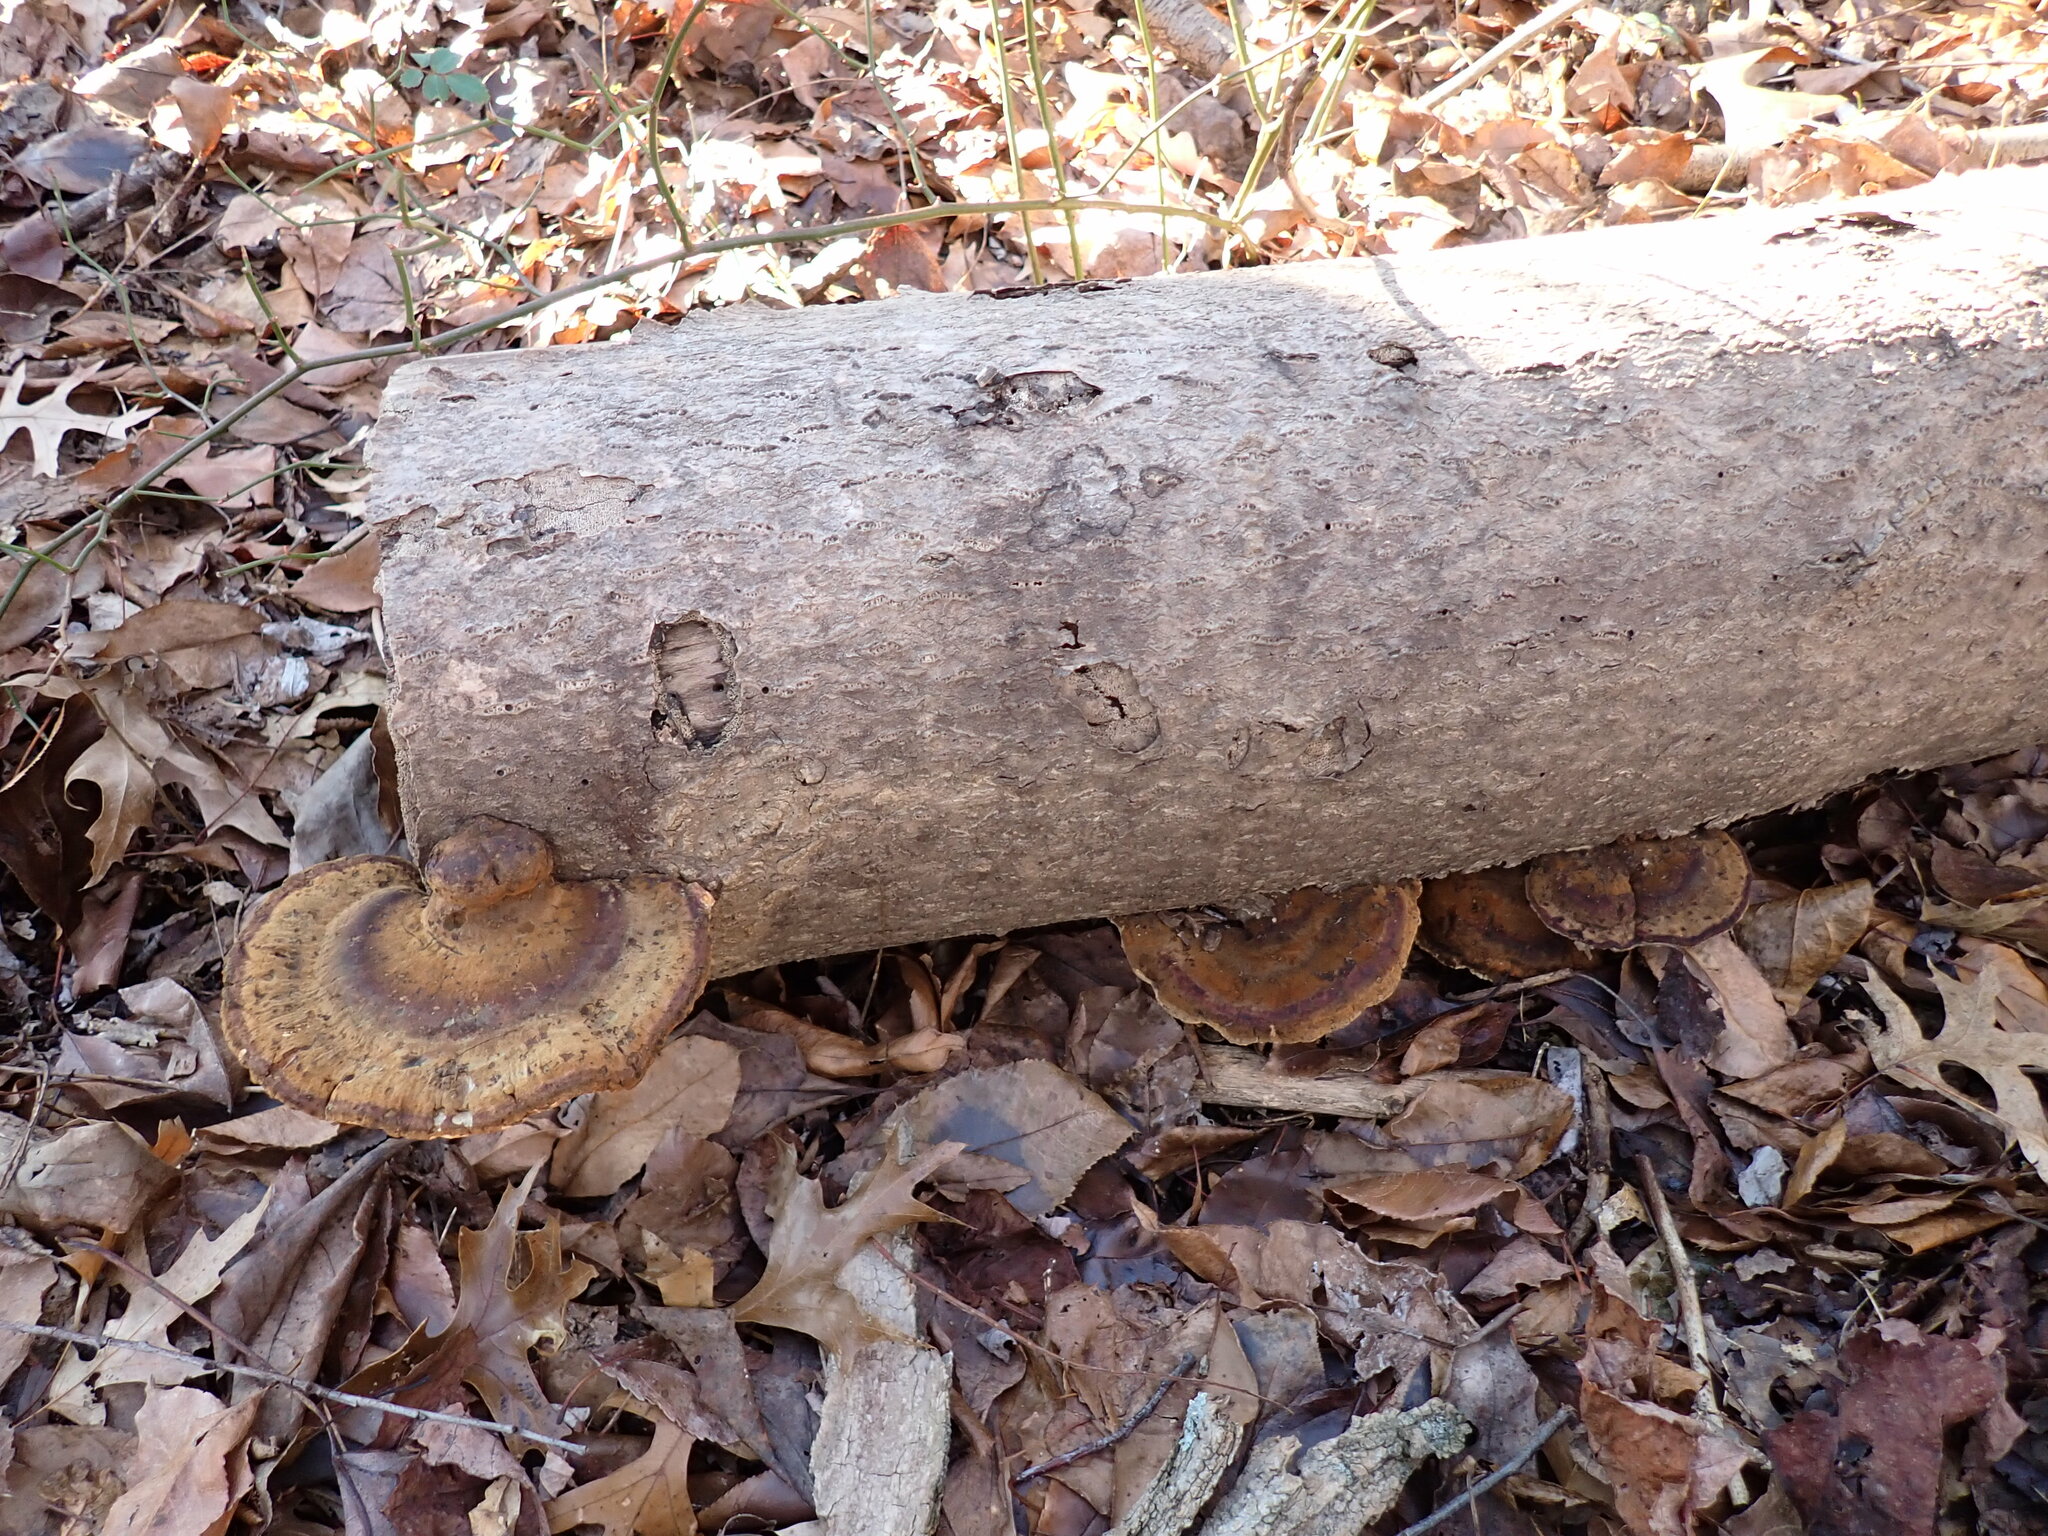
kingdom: Fungi
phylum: Basidiomycota
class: Agaricomycetes
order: Polyporales
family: Ischnodermataceae
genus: Ischnoderma
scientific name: Ischnoderma resinosum
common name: Resinous polypore
